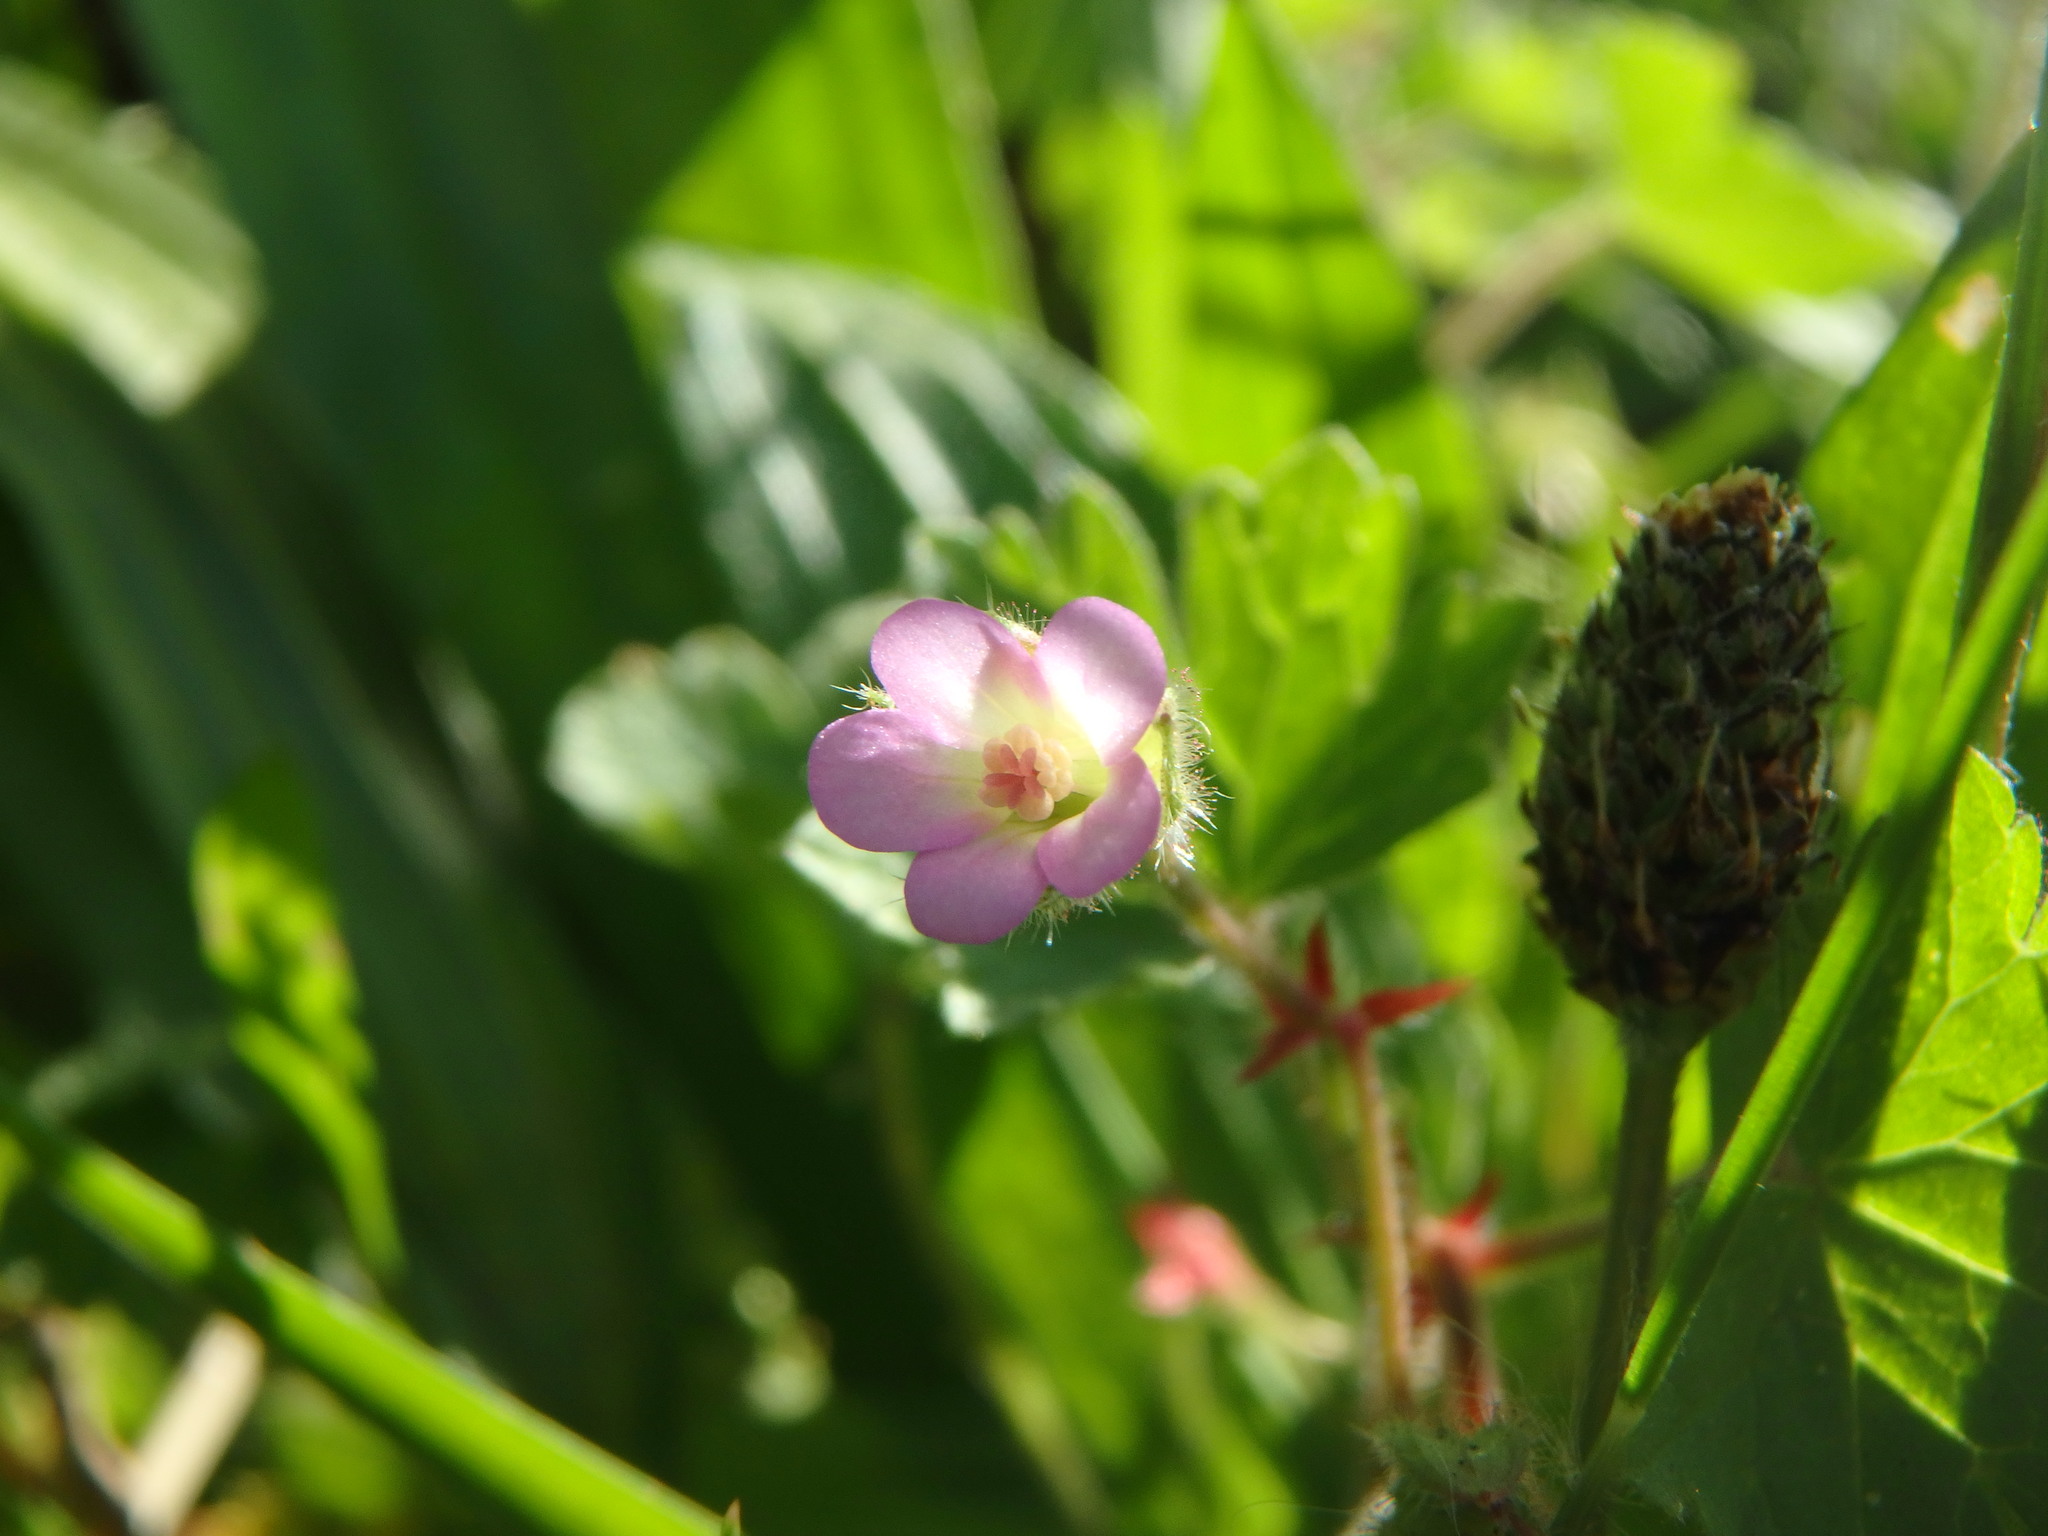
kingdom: Plantae
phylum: Tracheophyta
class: Magnoliopsida
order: Geraniales
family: Geraniaceae
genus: Geranium
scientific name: Geranium rotundifolium
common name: Round-leaved crane's-bill
